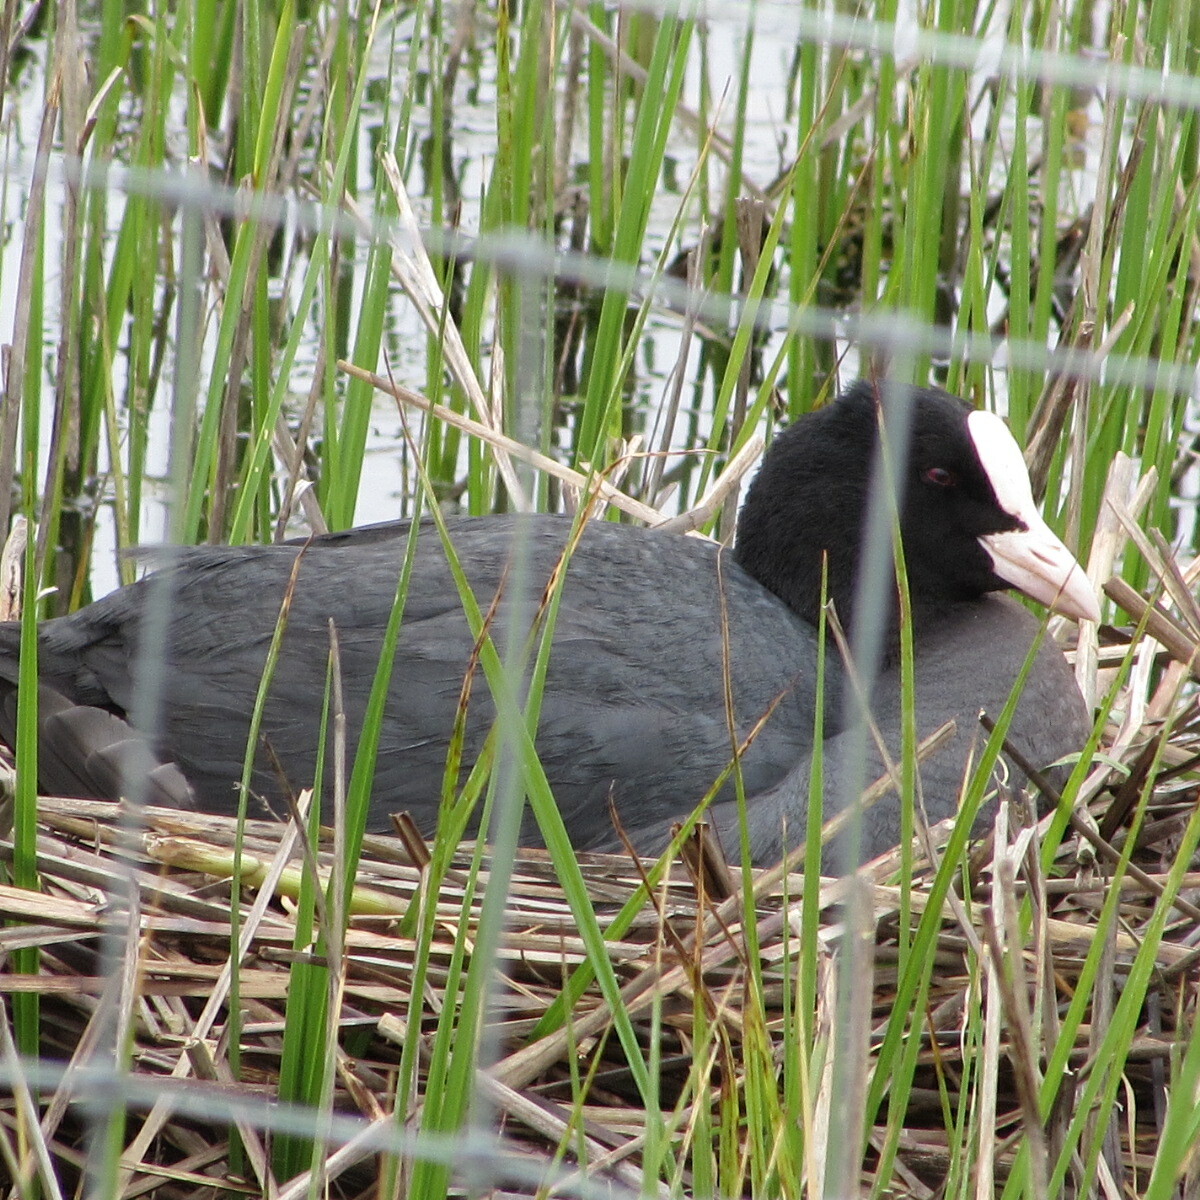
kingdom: Animalia
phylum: Chordata
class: Aves
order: Gruiformes
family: Rallidae
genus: Fulica
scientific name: Fulica atra
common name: Eurasian coot
